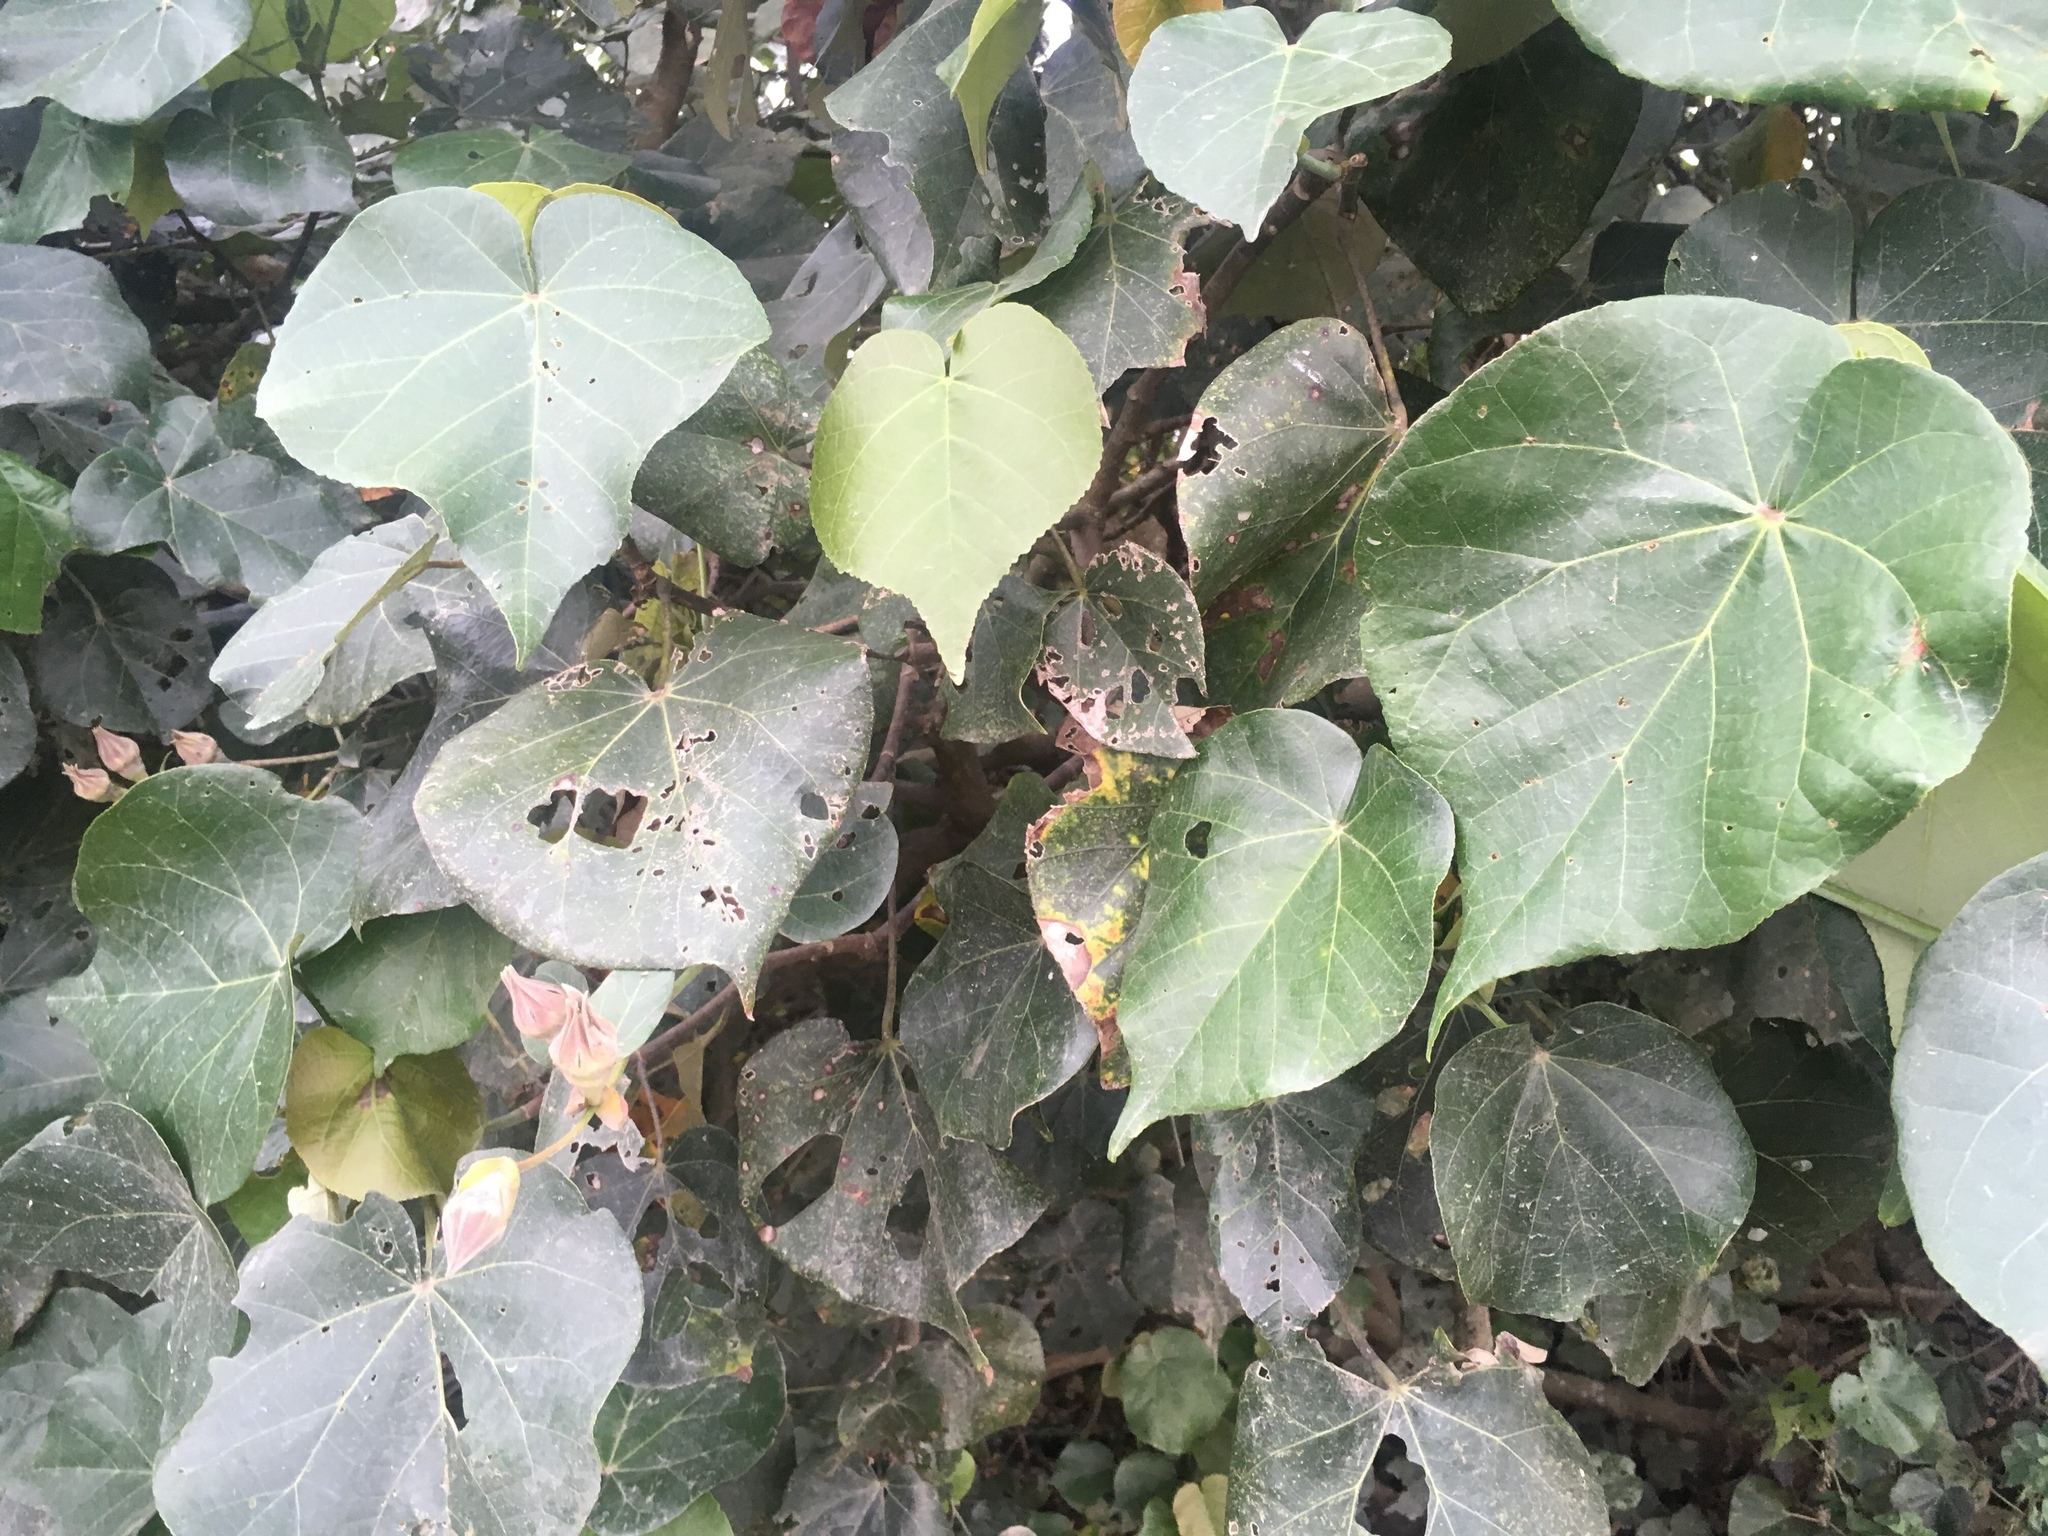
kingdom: Plantae
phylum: Tracheophyta
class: Magnoliopsida
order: Malvales
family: Malvaceae
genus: Talipariti
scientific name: Talipariti tiliaceum
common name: Sea hibiscus
